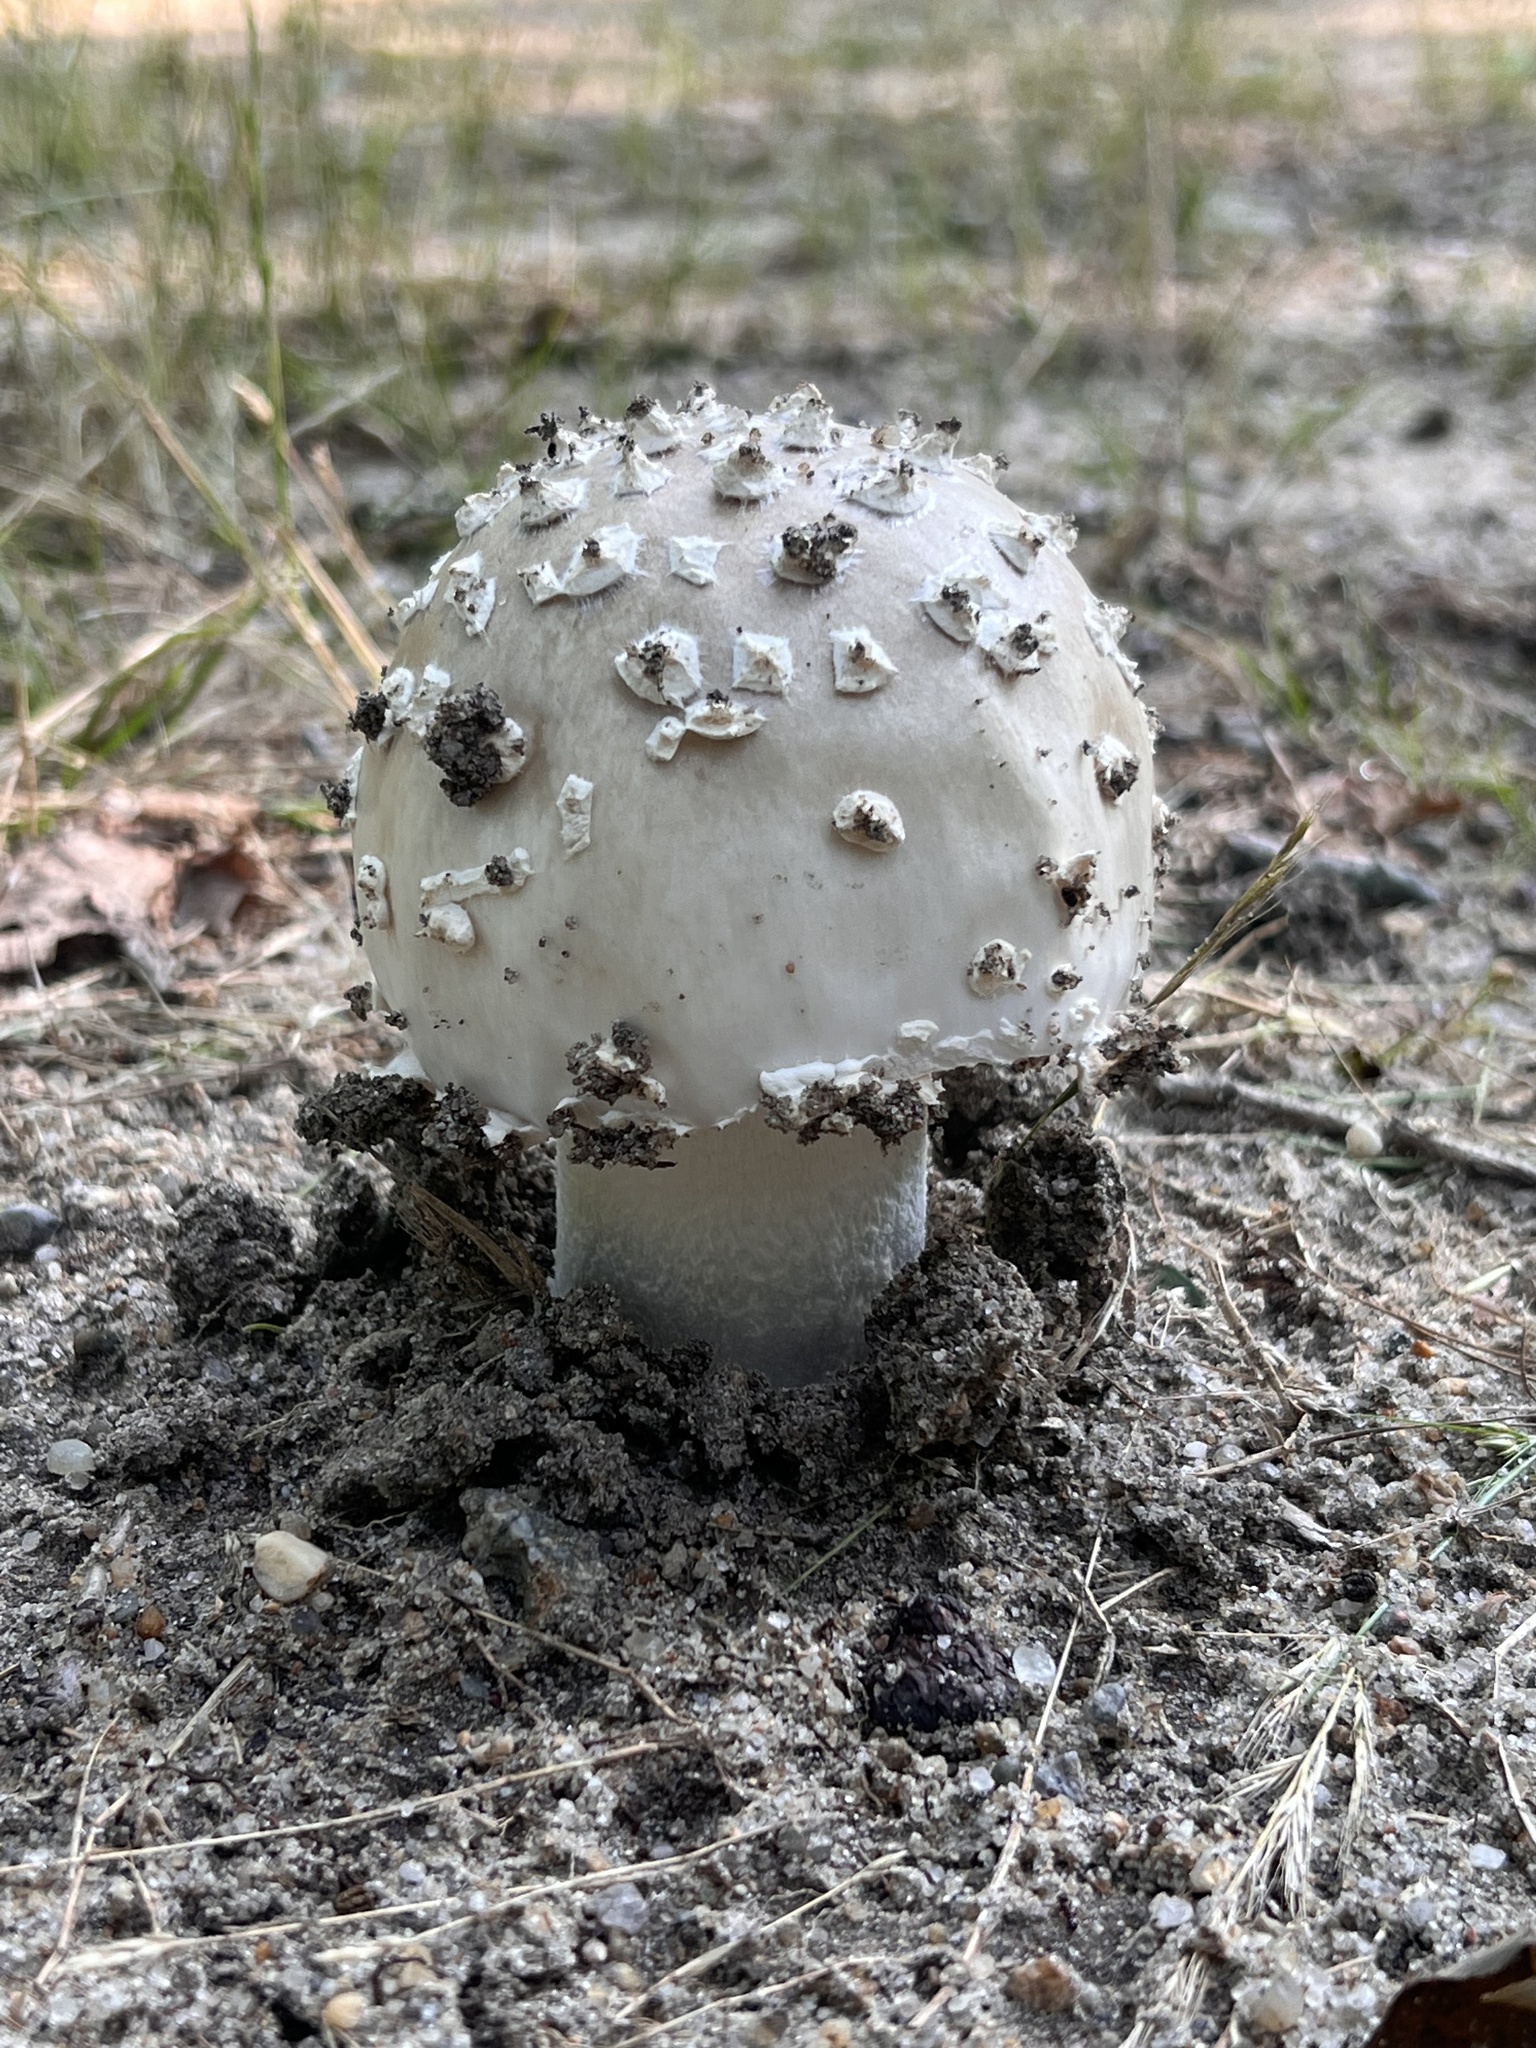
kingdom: Fungi
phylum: Basidiomycota
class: Agaricomycetes
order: Agaricales
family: Amanitaceae
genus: Amanita
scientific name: Amanita canescens
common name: Golden threads lepidella
